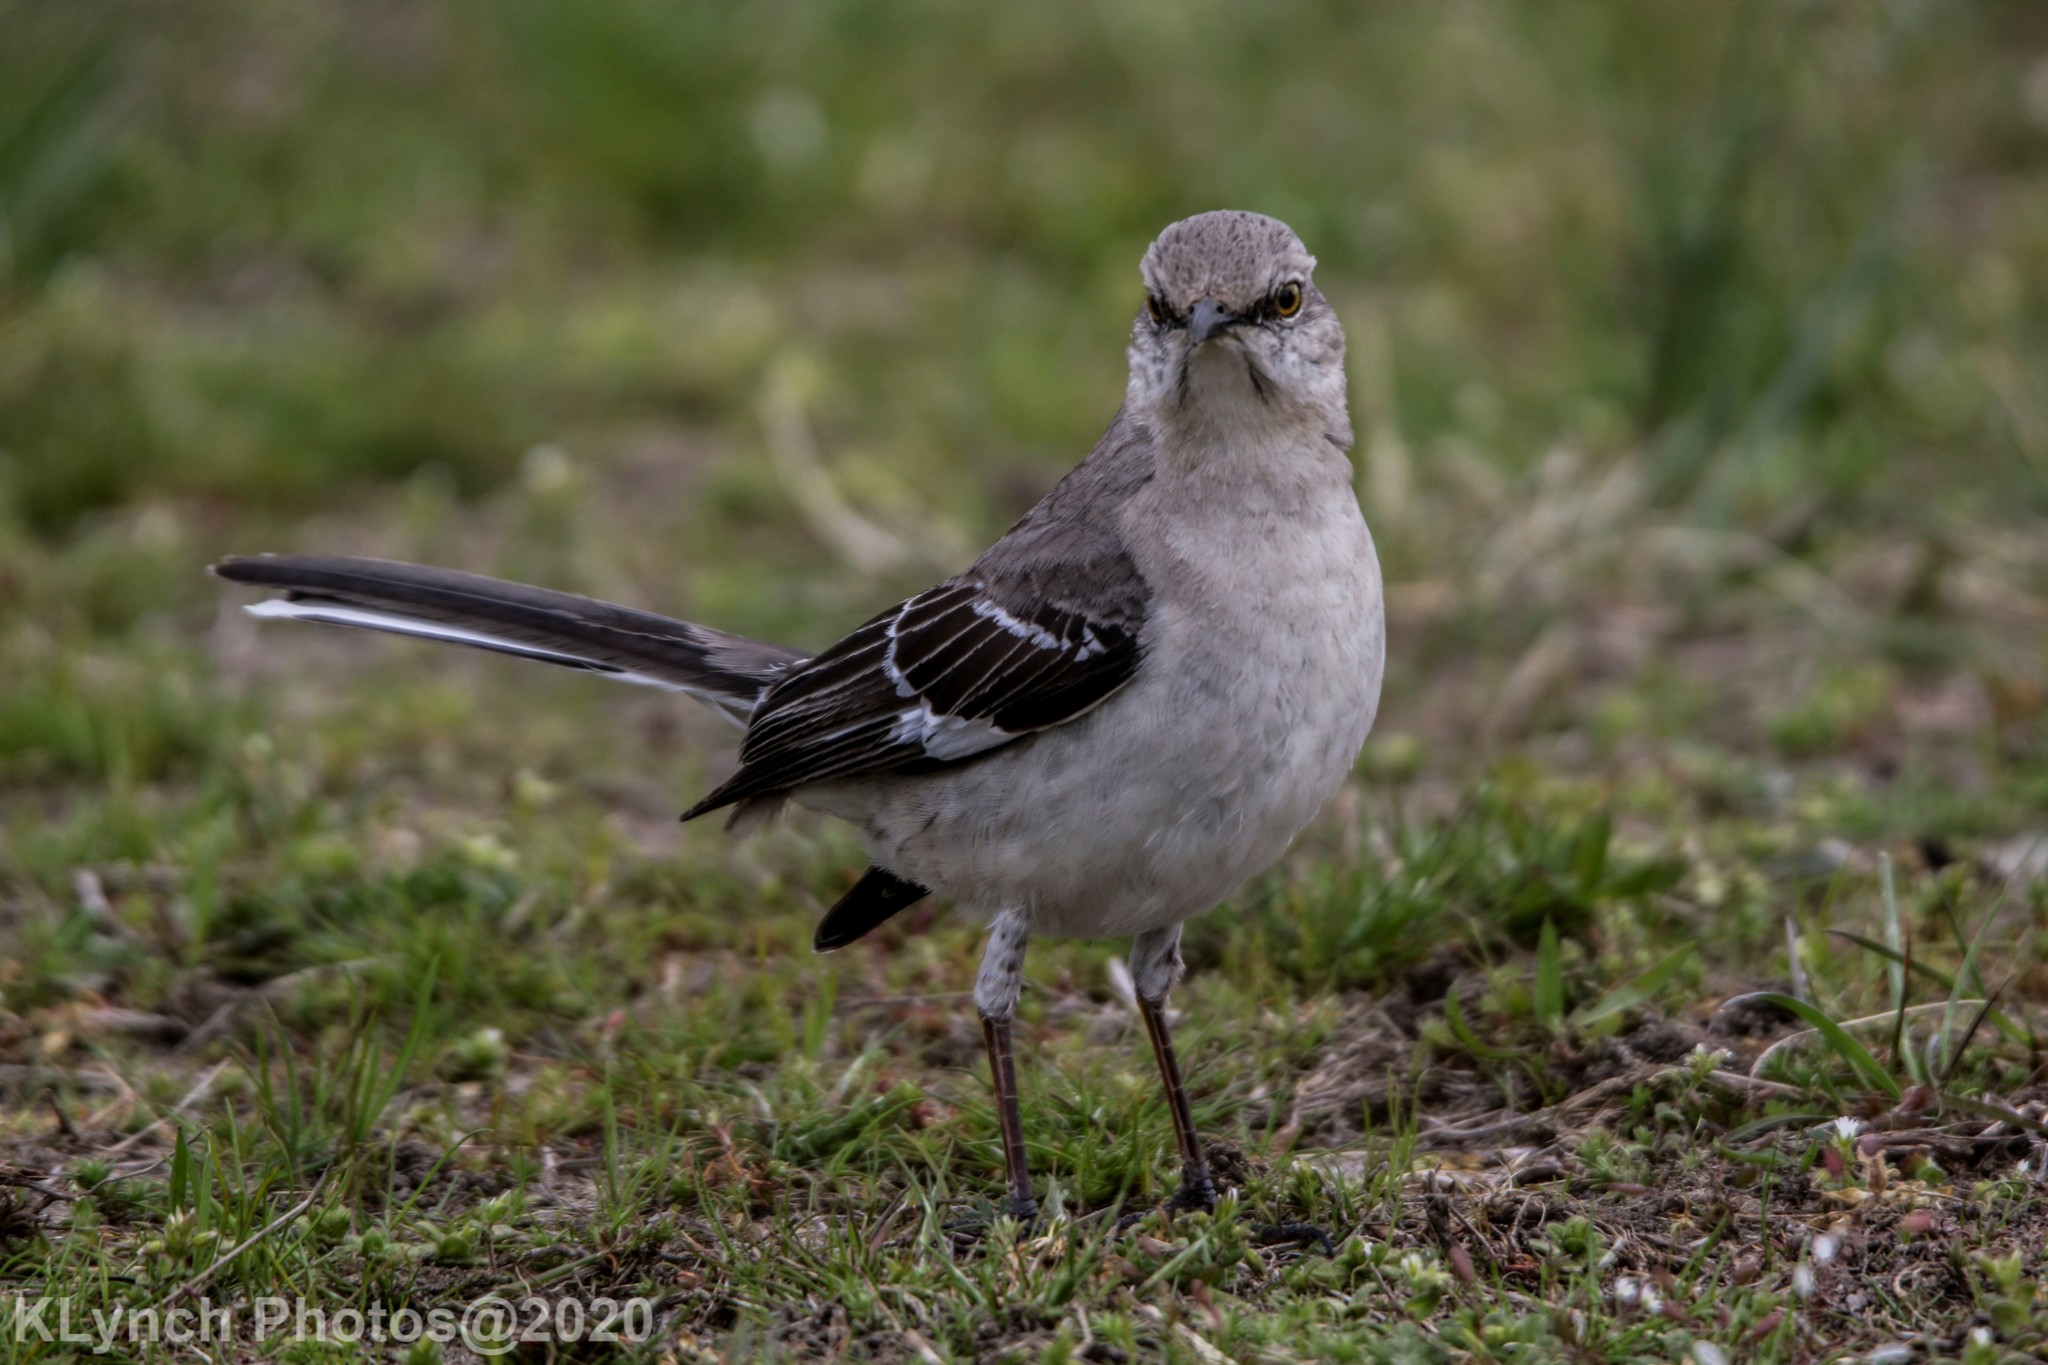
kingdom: Animalia
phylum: Chordata
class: Aves
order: Passeriformes
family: Mimidae
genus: Mimus
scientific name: Mimus polyglottos
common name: Northern mockingbird
